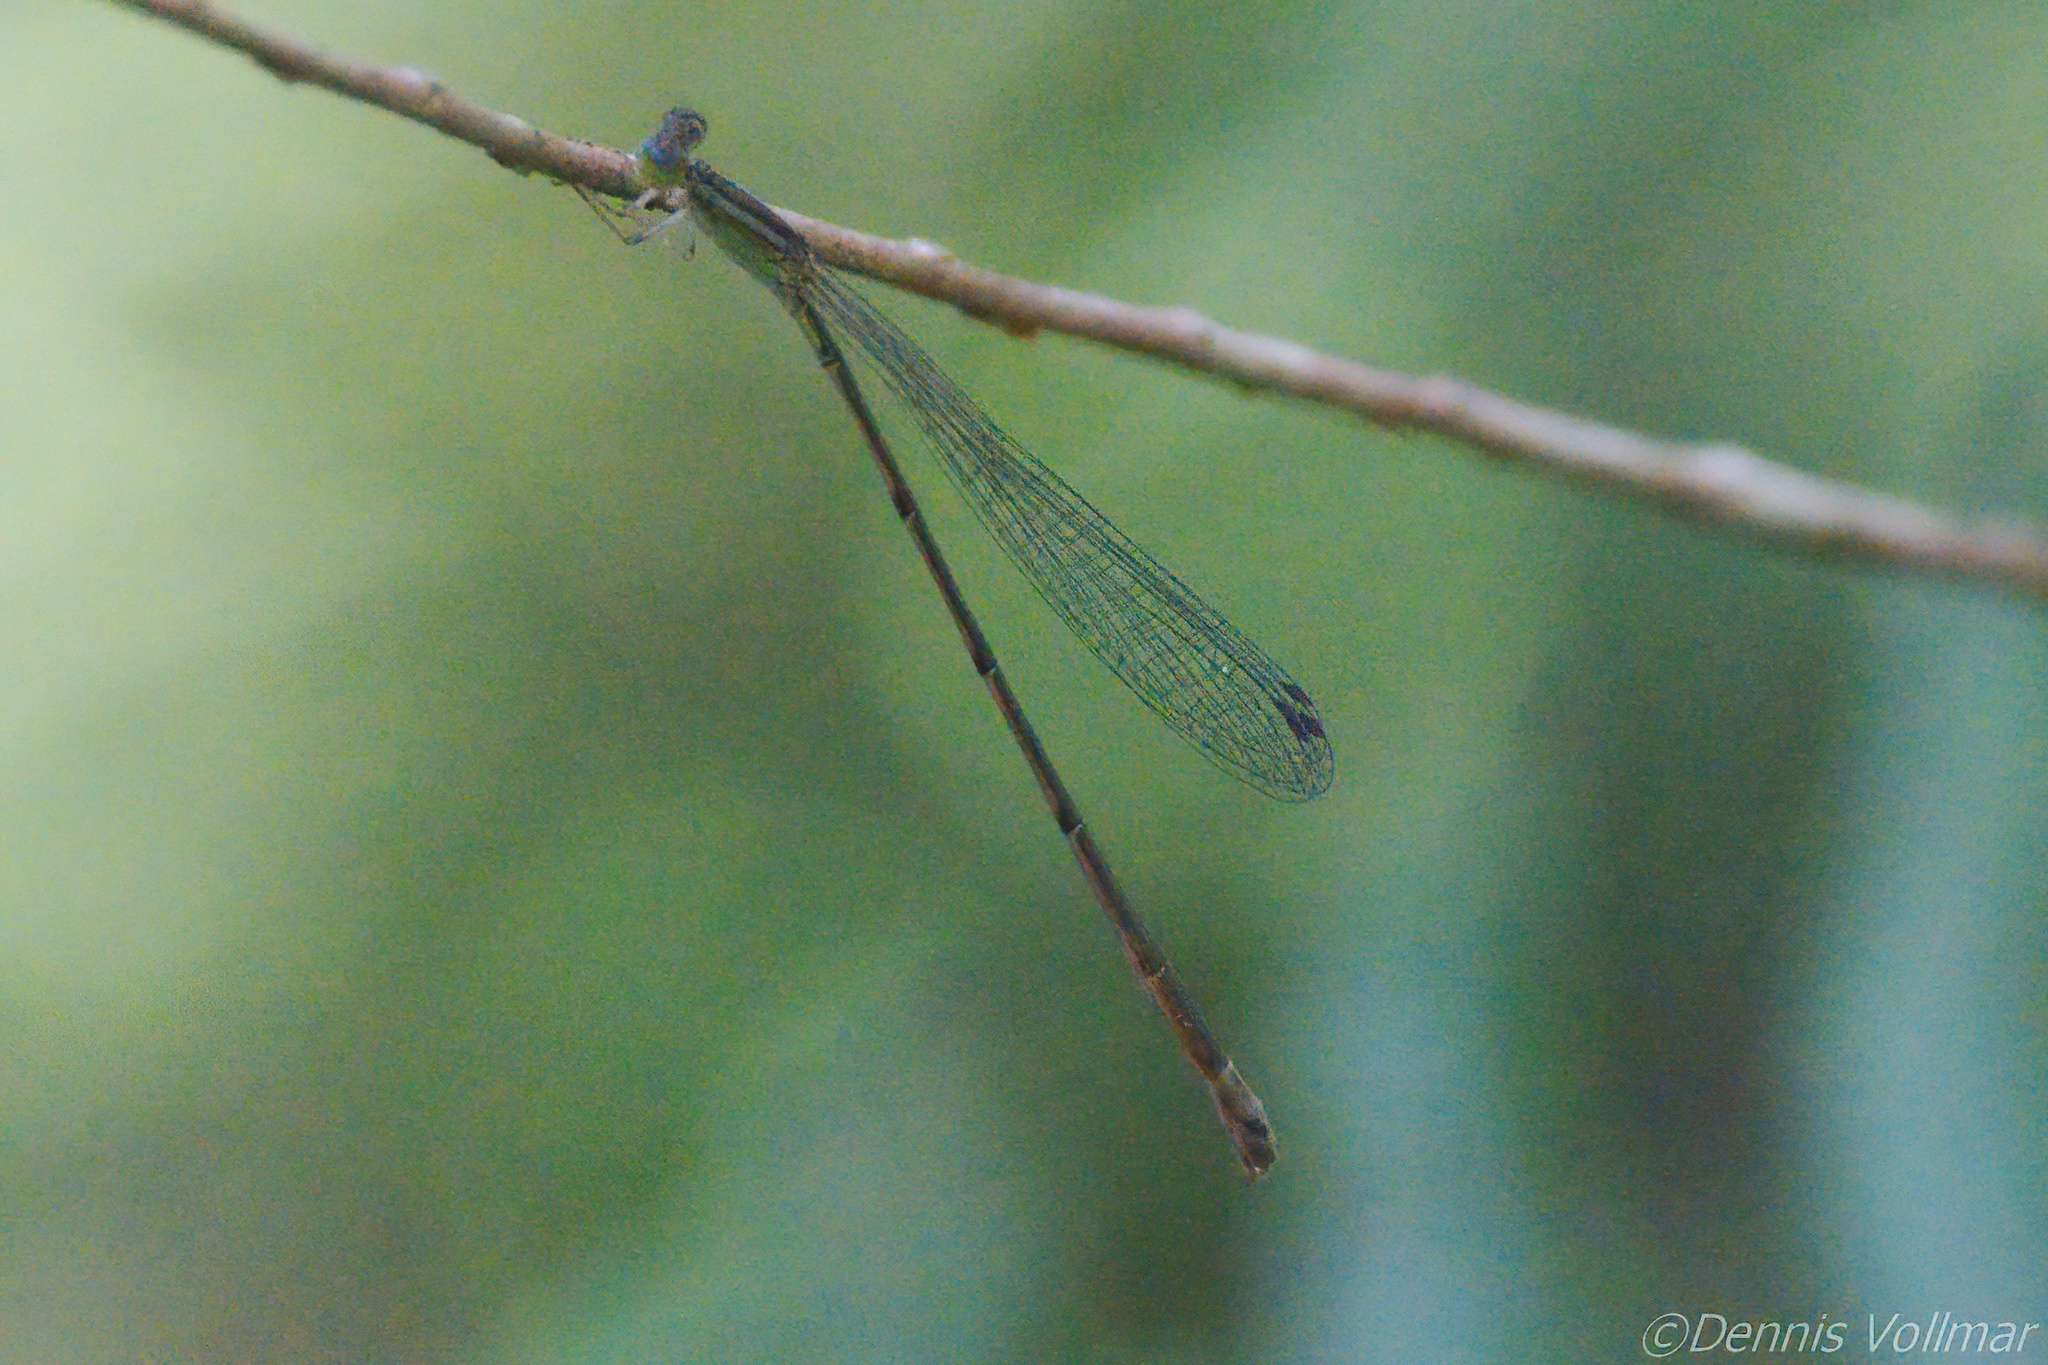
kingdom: Animalia
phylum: Arthropoda
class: Insecta
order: Odonata
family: Coenagrionidae
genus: Leptobasis
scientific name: Leptobasis lucifer
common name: Lucifer swampdamsel
